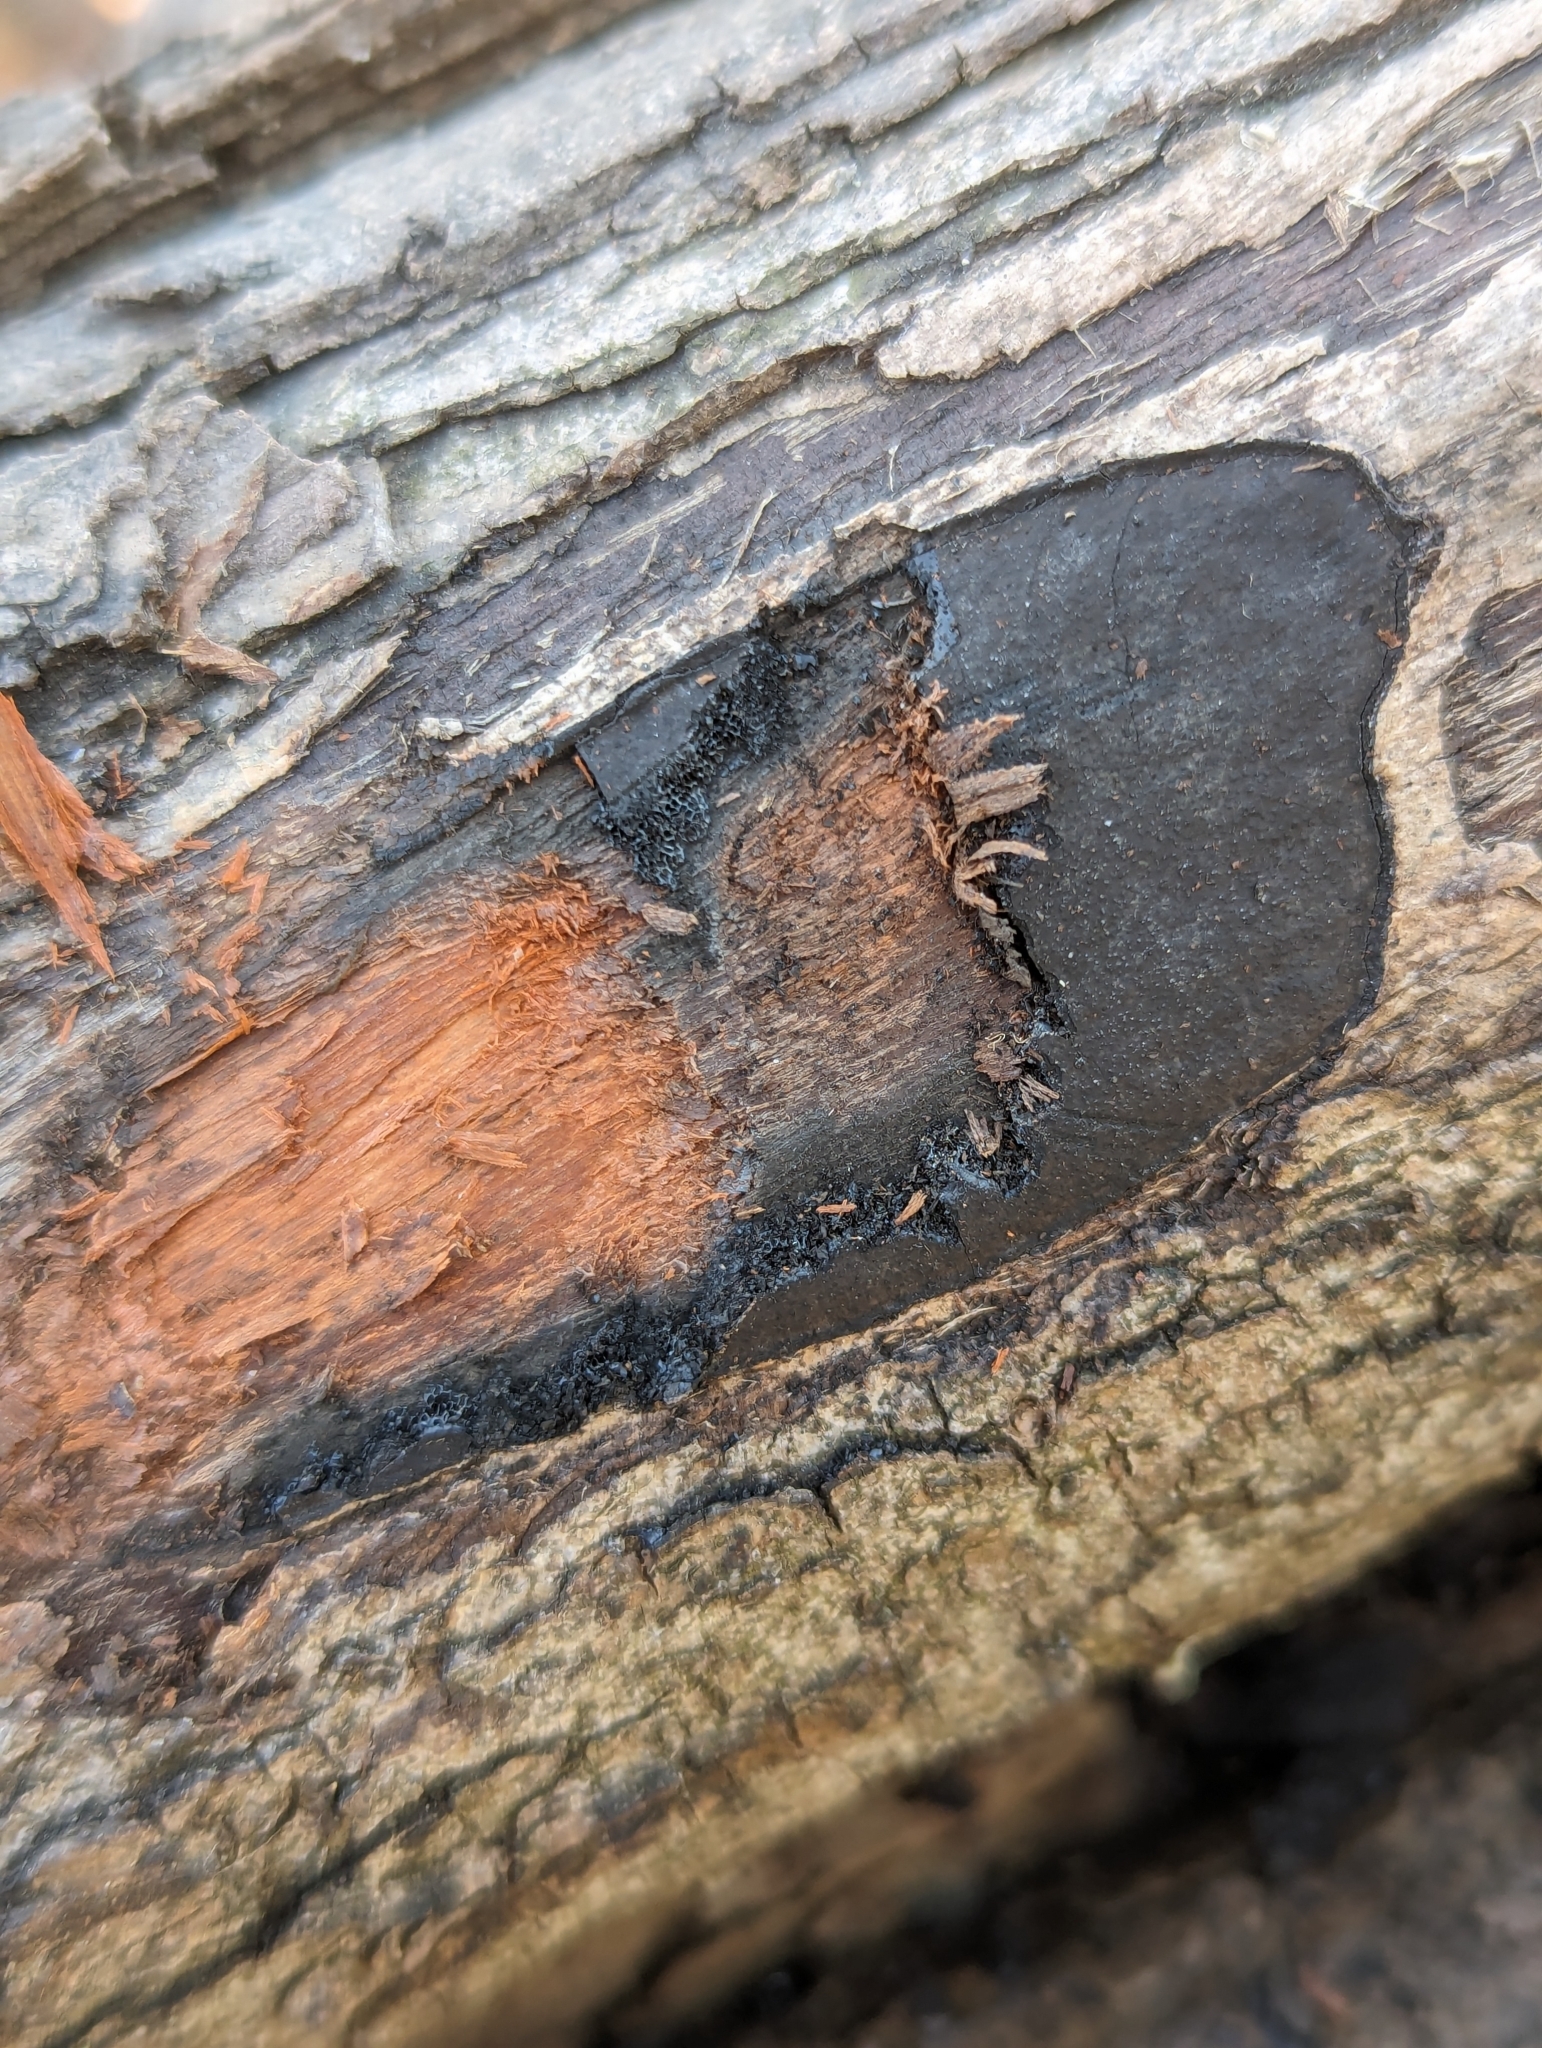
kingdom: Fungi
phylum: Ascomycota
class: Sordariomycetes
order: Xylariales
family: Graphostromataceae
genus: Camillea
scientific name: Camillea tinctor
